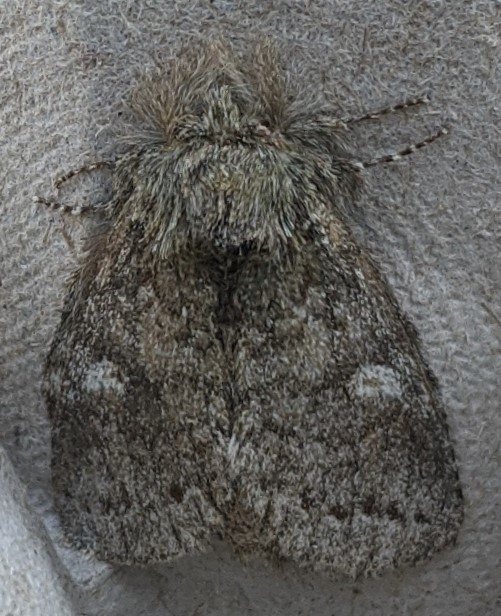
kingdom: Animalia
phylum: Arthropoda
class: Insecta
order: Lepidoptera
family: Notodontidae
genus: Disphragis
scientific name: Disphragis Cecrita guttivitta
